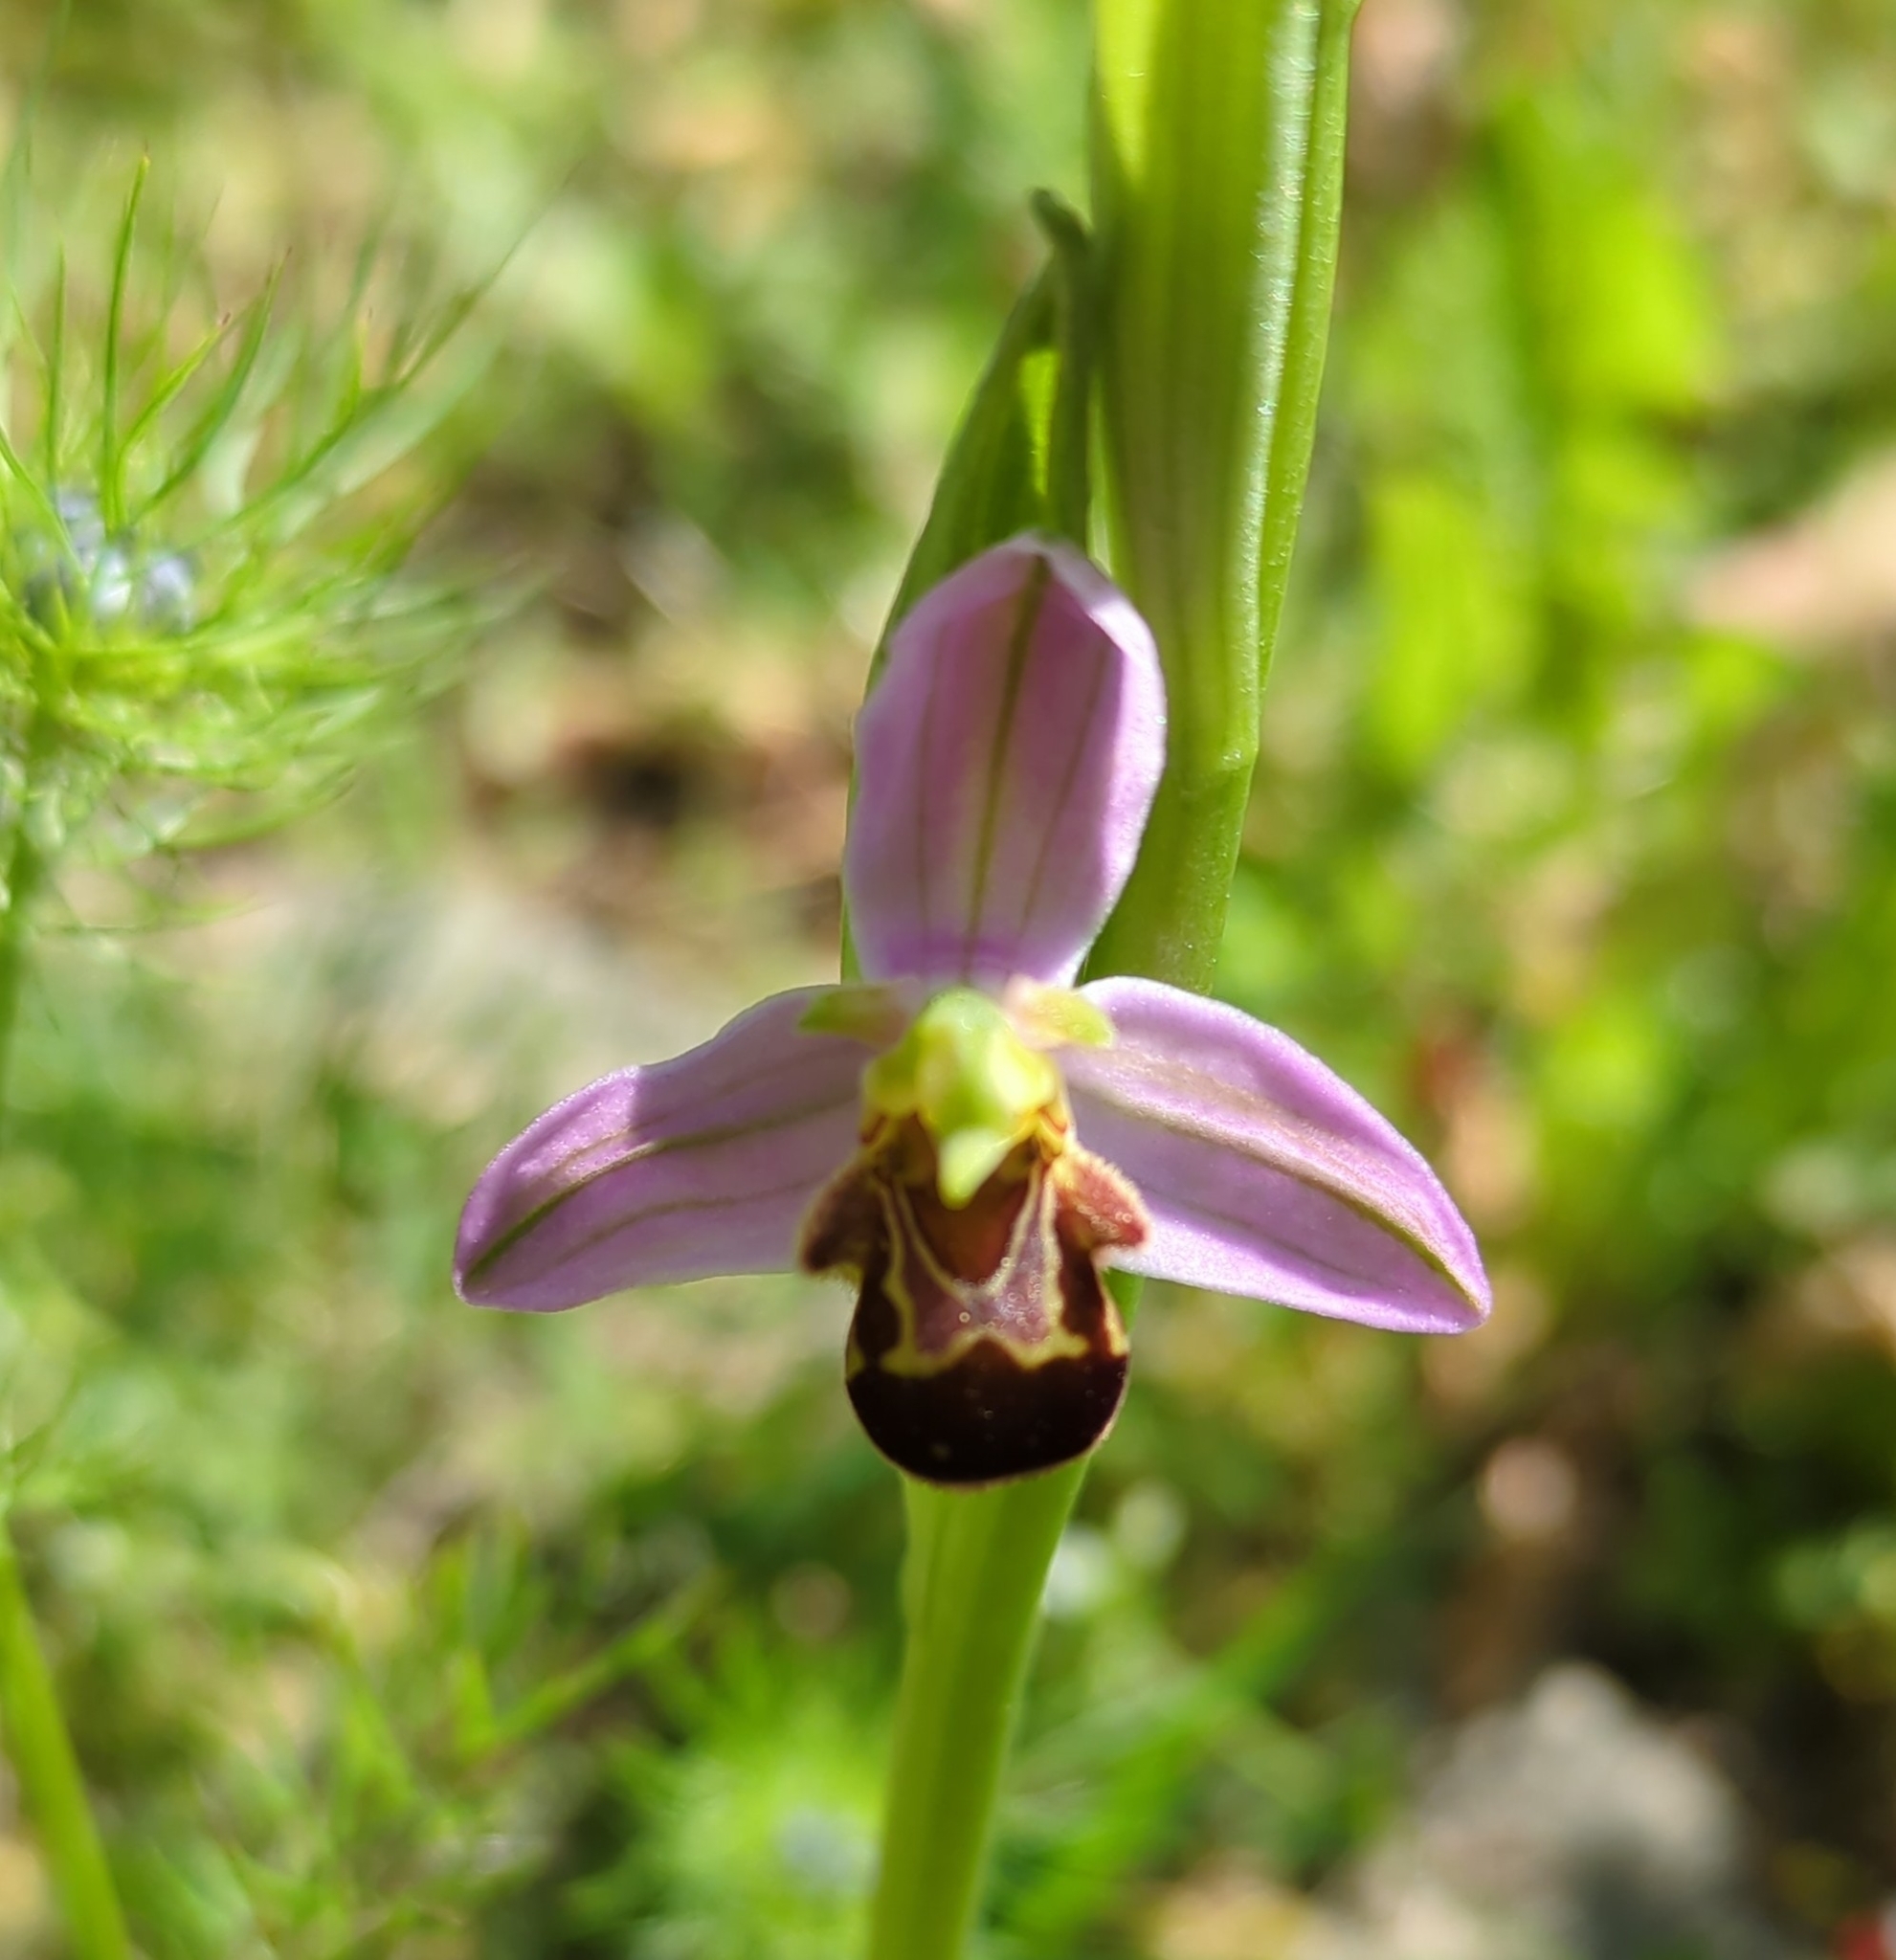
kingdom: Plantae
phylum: Tracheophyta
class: Liliopsida
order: Asparagales
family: Orchidaceae
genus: Ophrys
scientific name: Ophrys apifera
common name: Bee orchid
